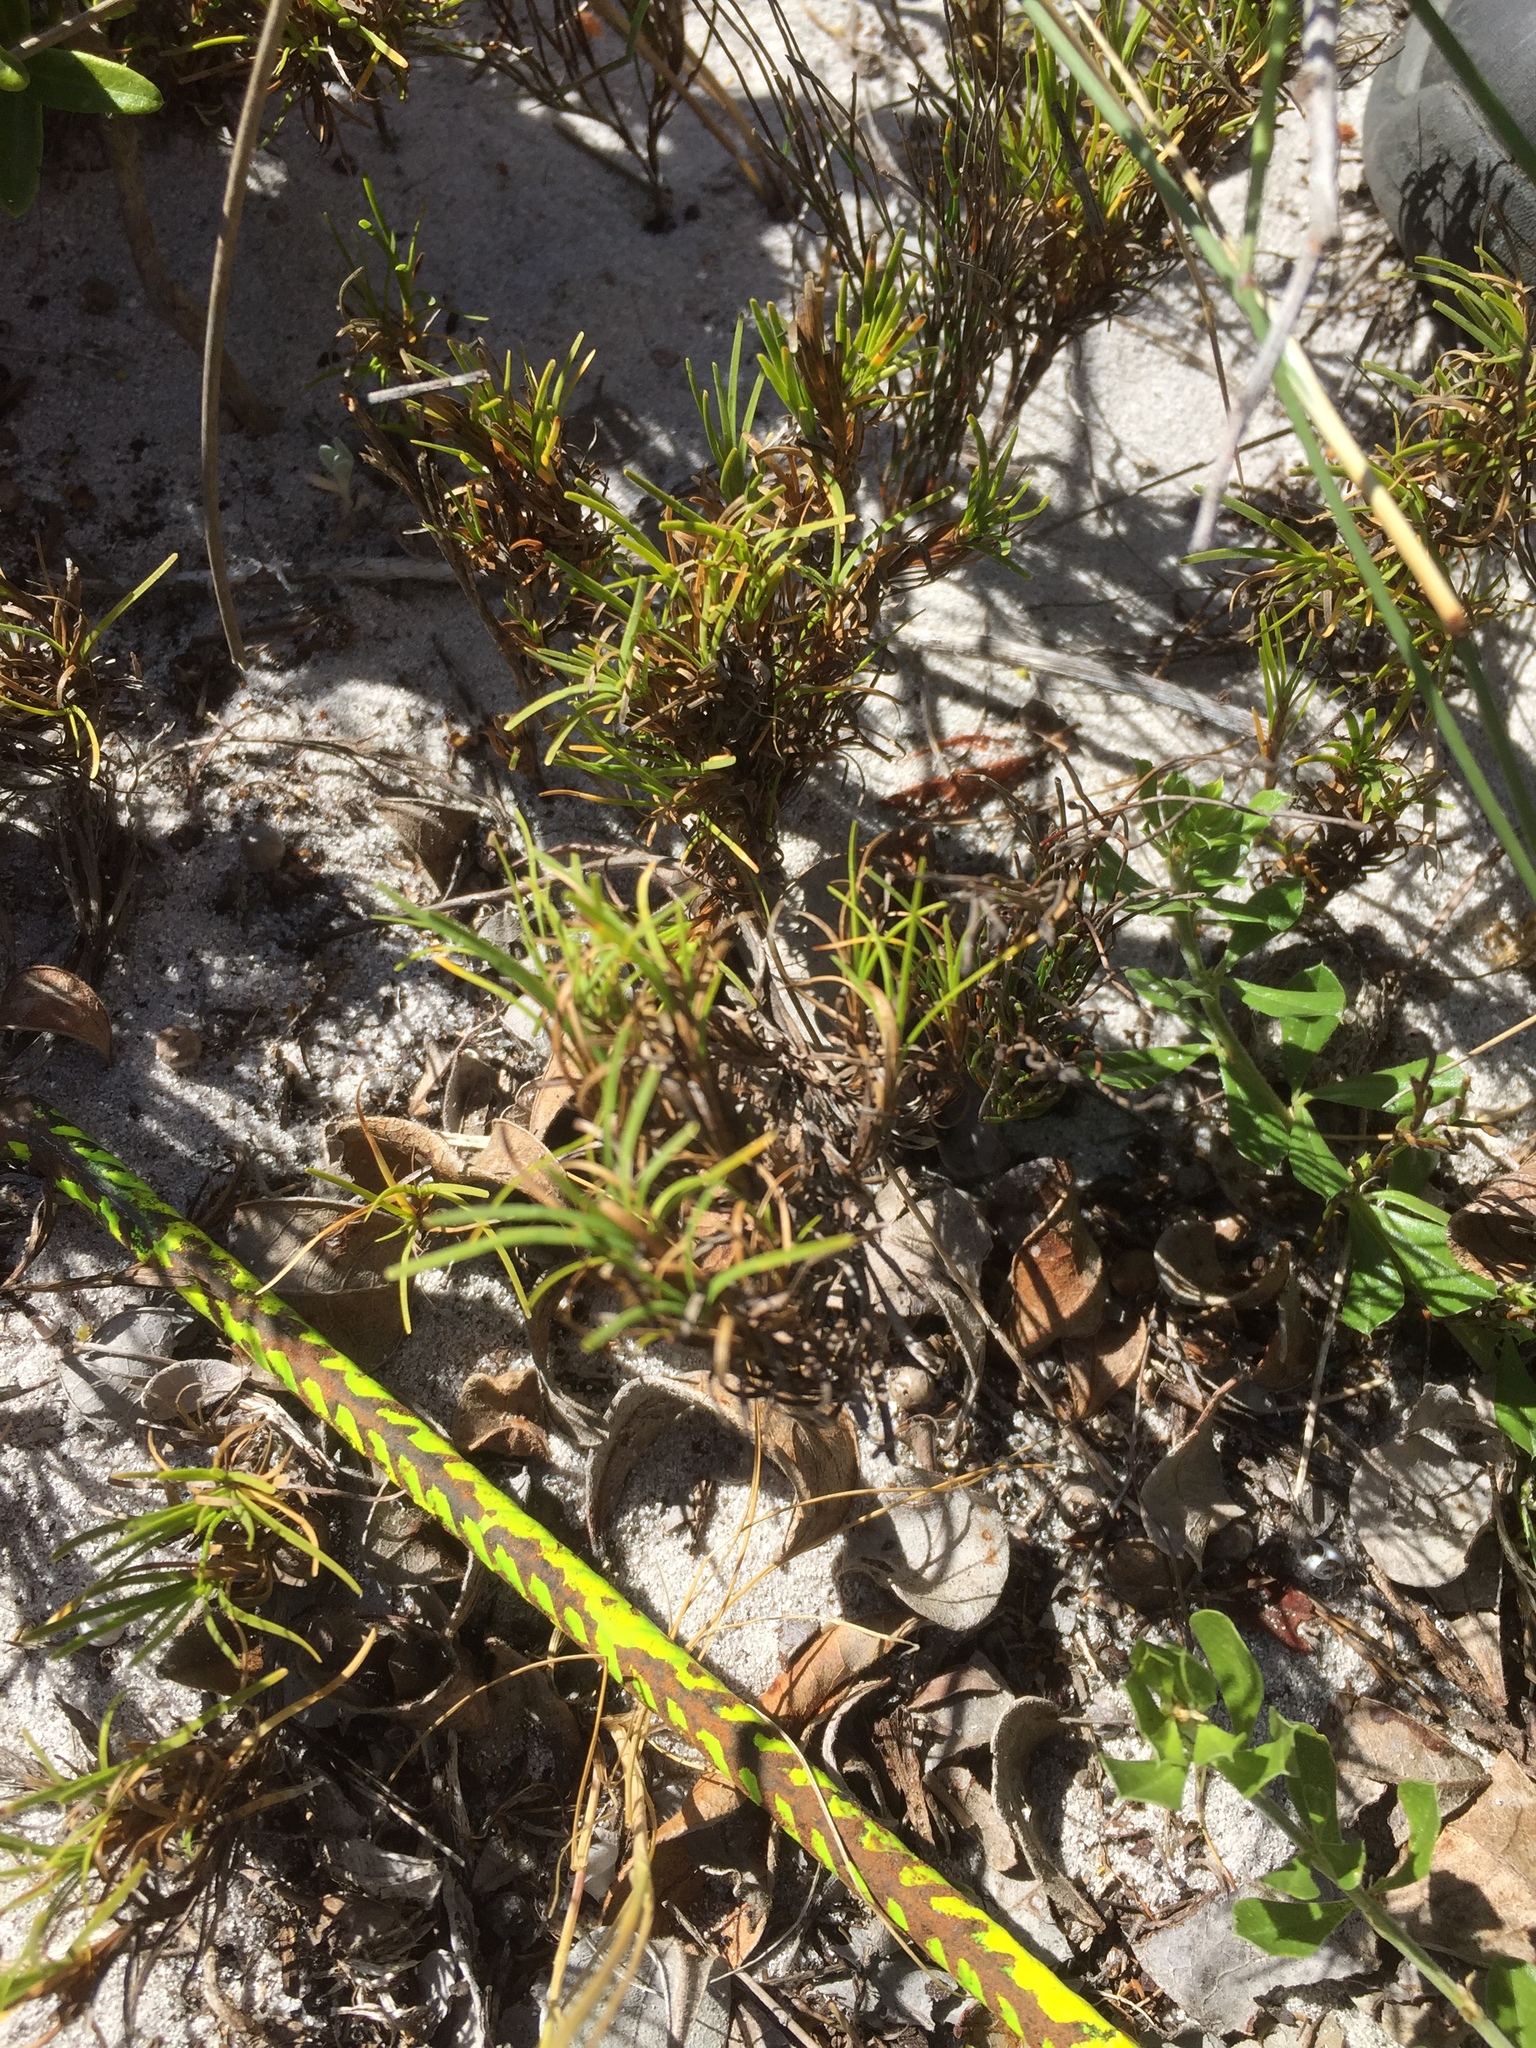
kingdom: Plantae
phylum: Tracheophyta
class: Liliopsida
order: Poales
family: Cyperaceae
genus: Ficinia
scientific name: Ficinia ramosissima
